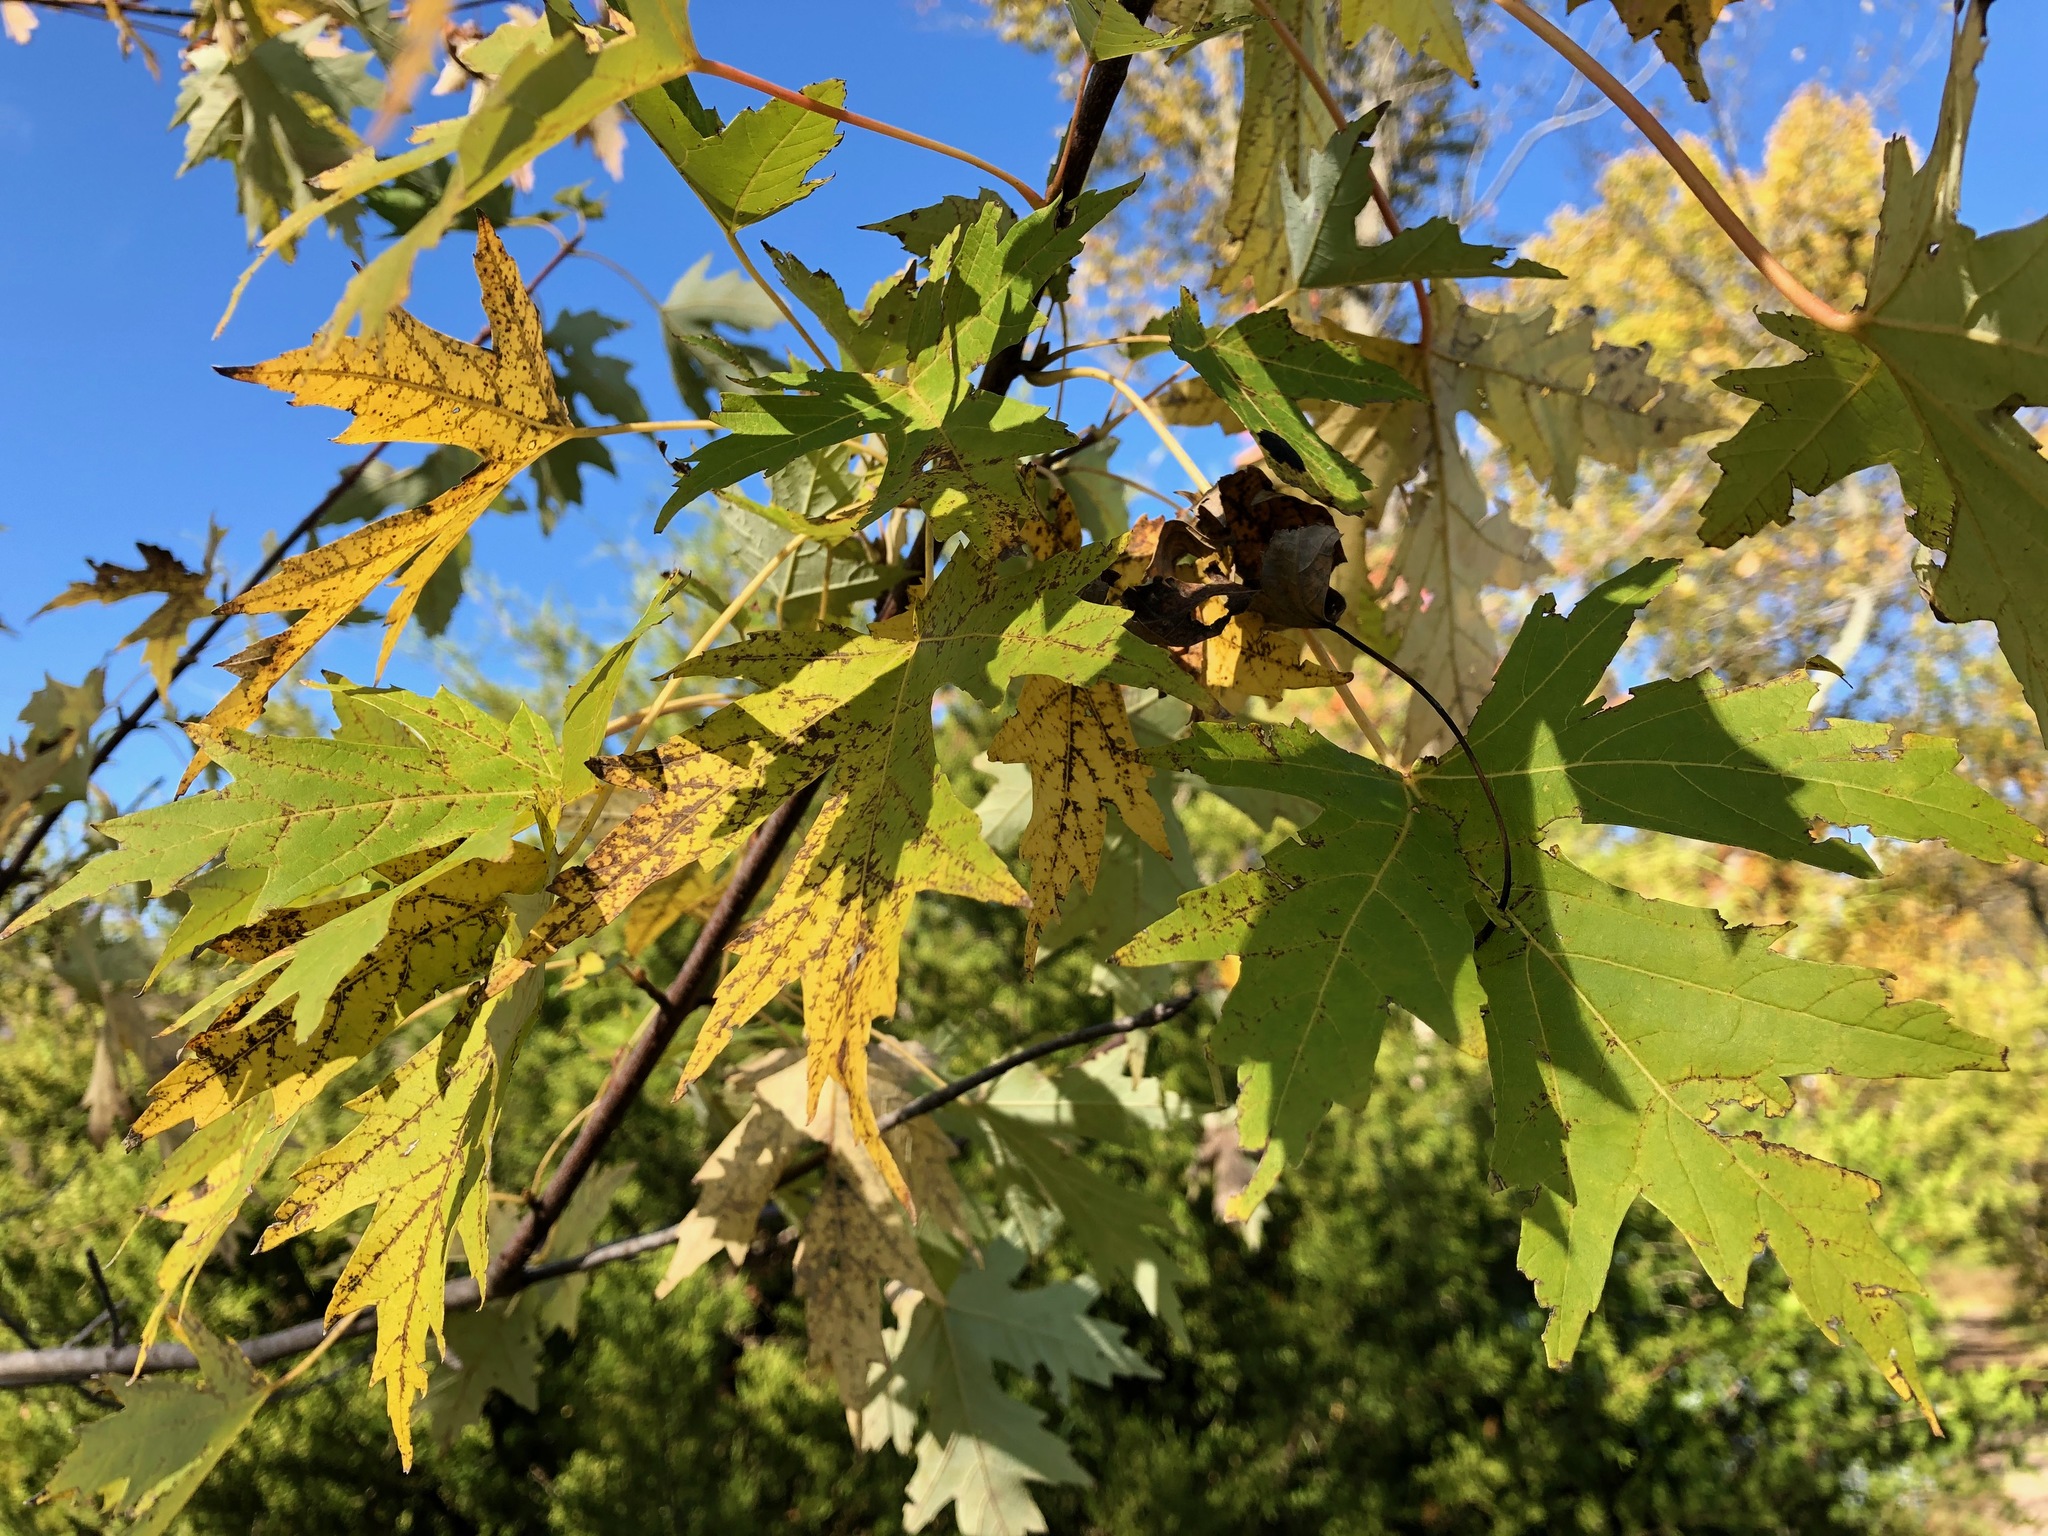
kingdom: Plantae
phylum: Tracheophyta
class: Magnoliopsida
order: Sapindales
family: Sapindaceae
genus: Acer
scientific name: Acer saccharinum
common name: Silver maple
